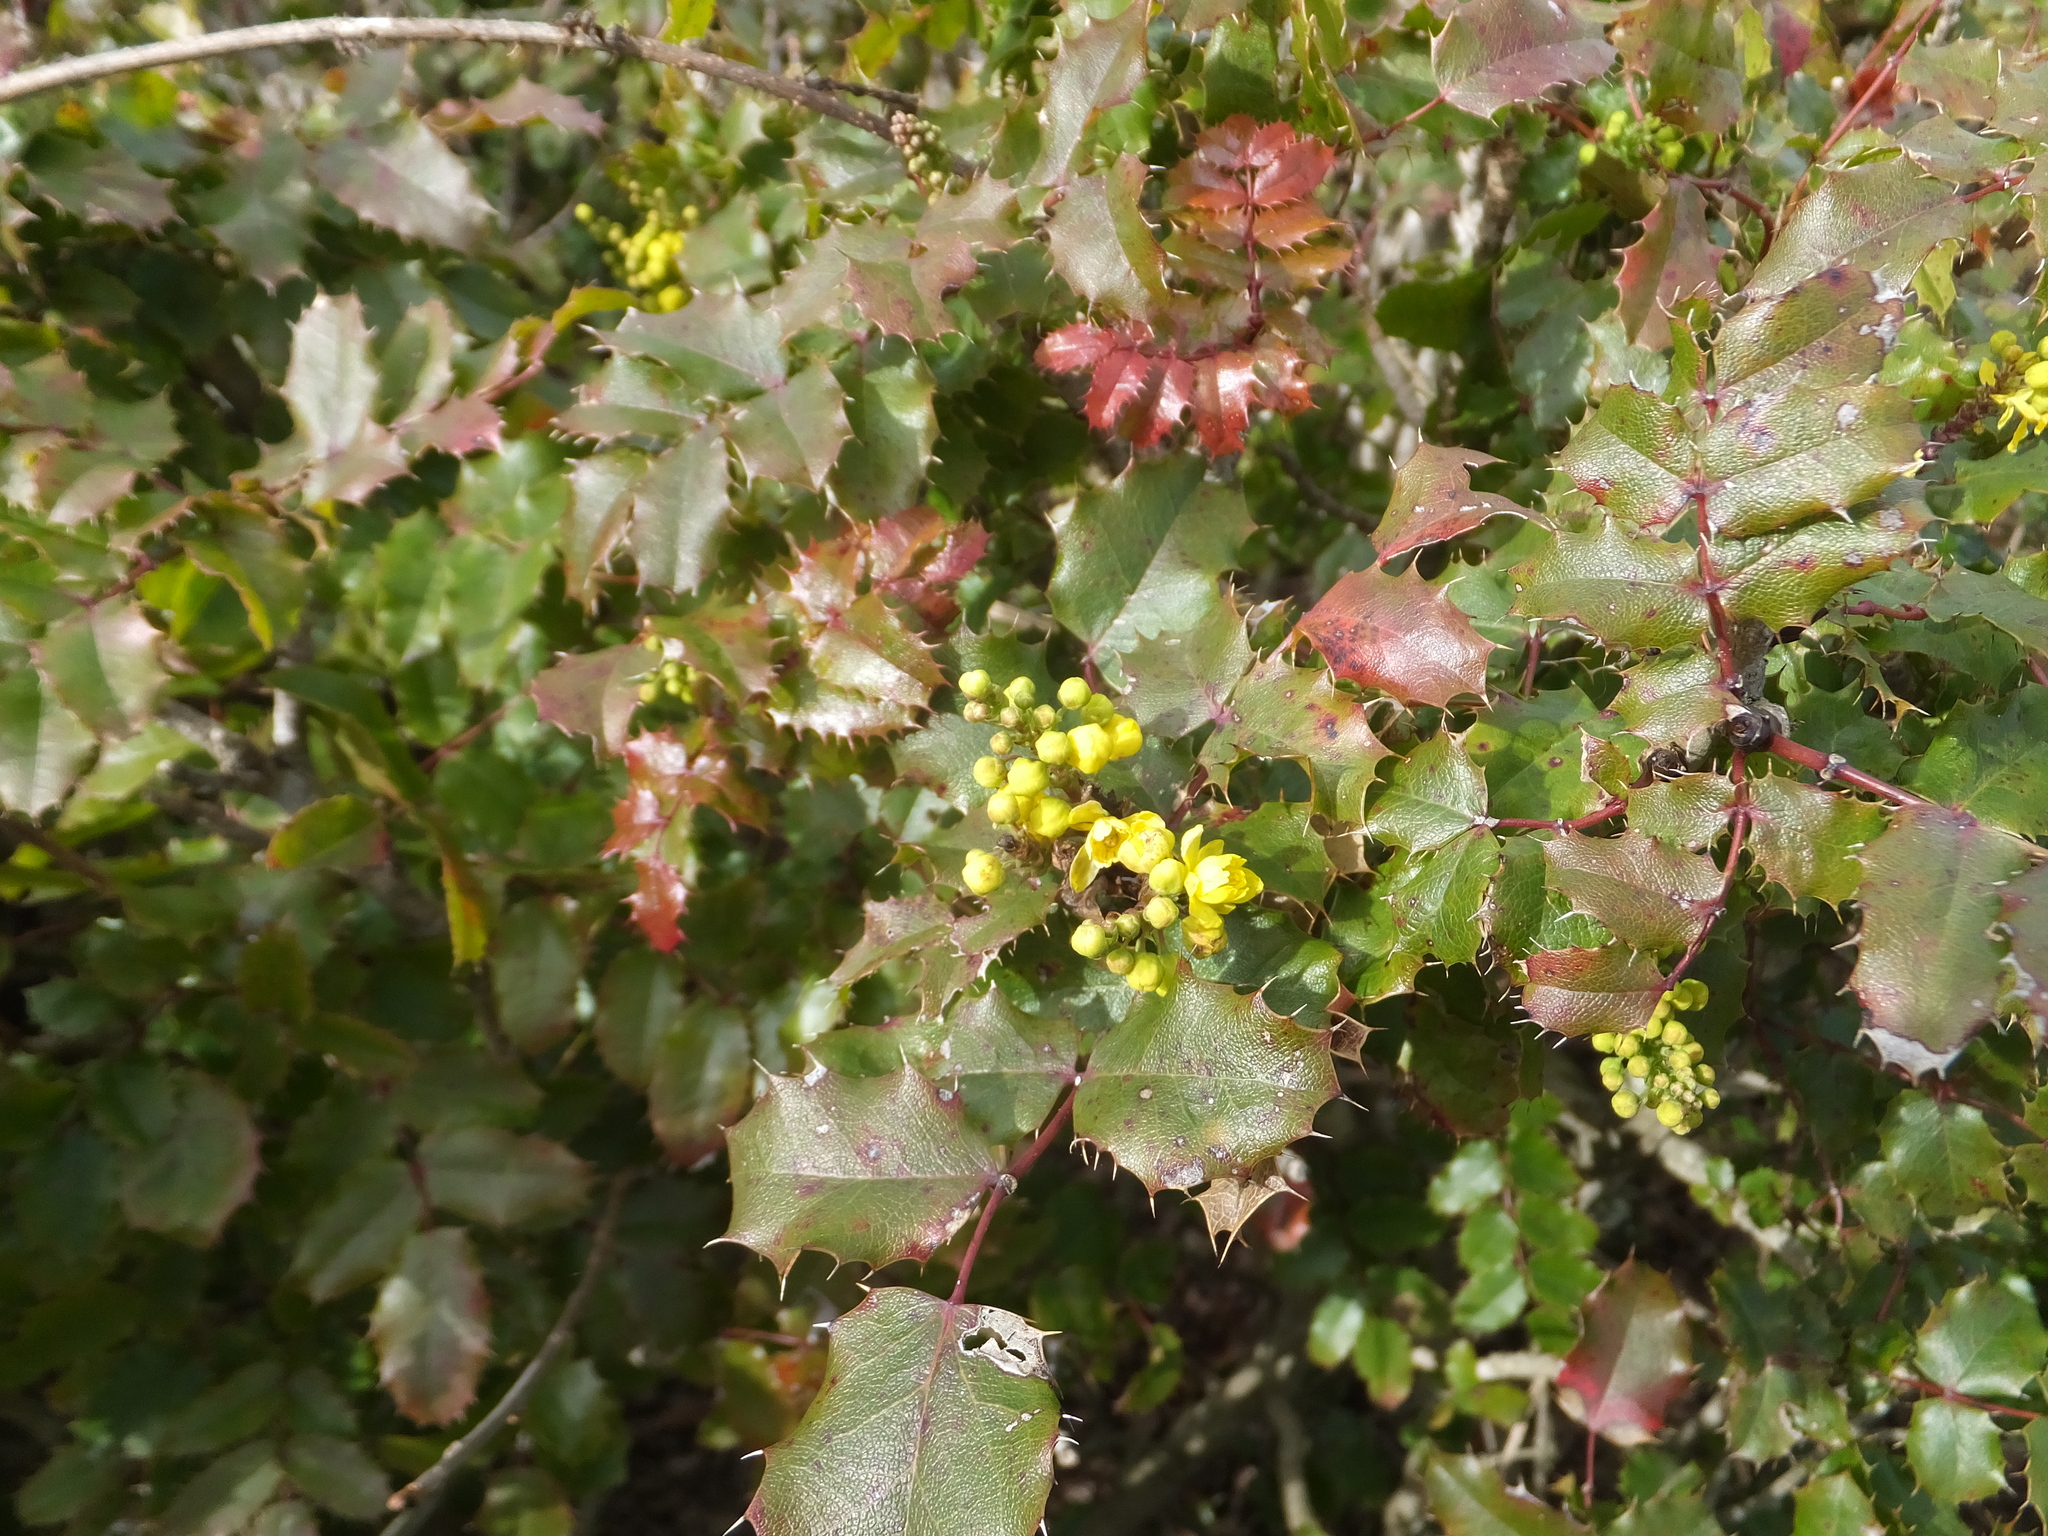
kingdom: Plantae
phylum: Tracheophyta
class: Magnoliopsida
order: Ranunculales
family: Berberidaceae
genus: Mahonia
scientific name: Mahonia
